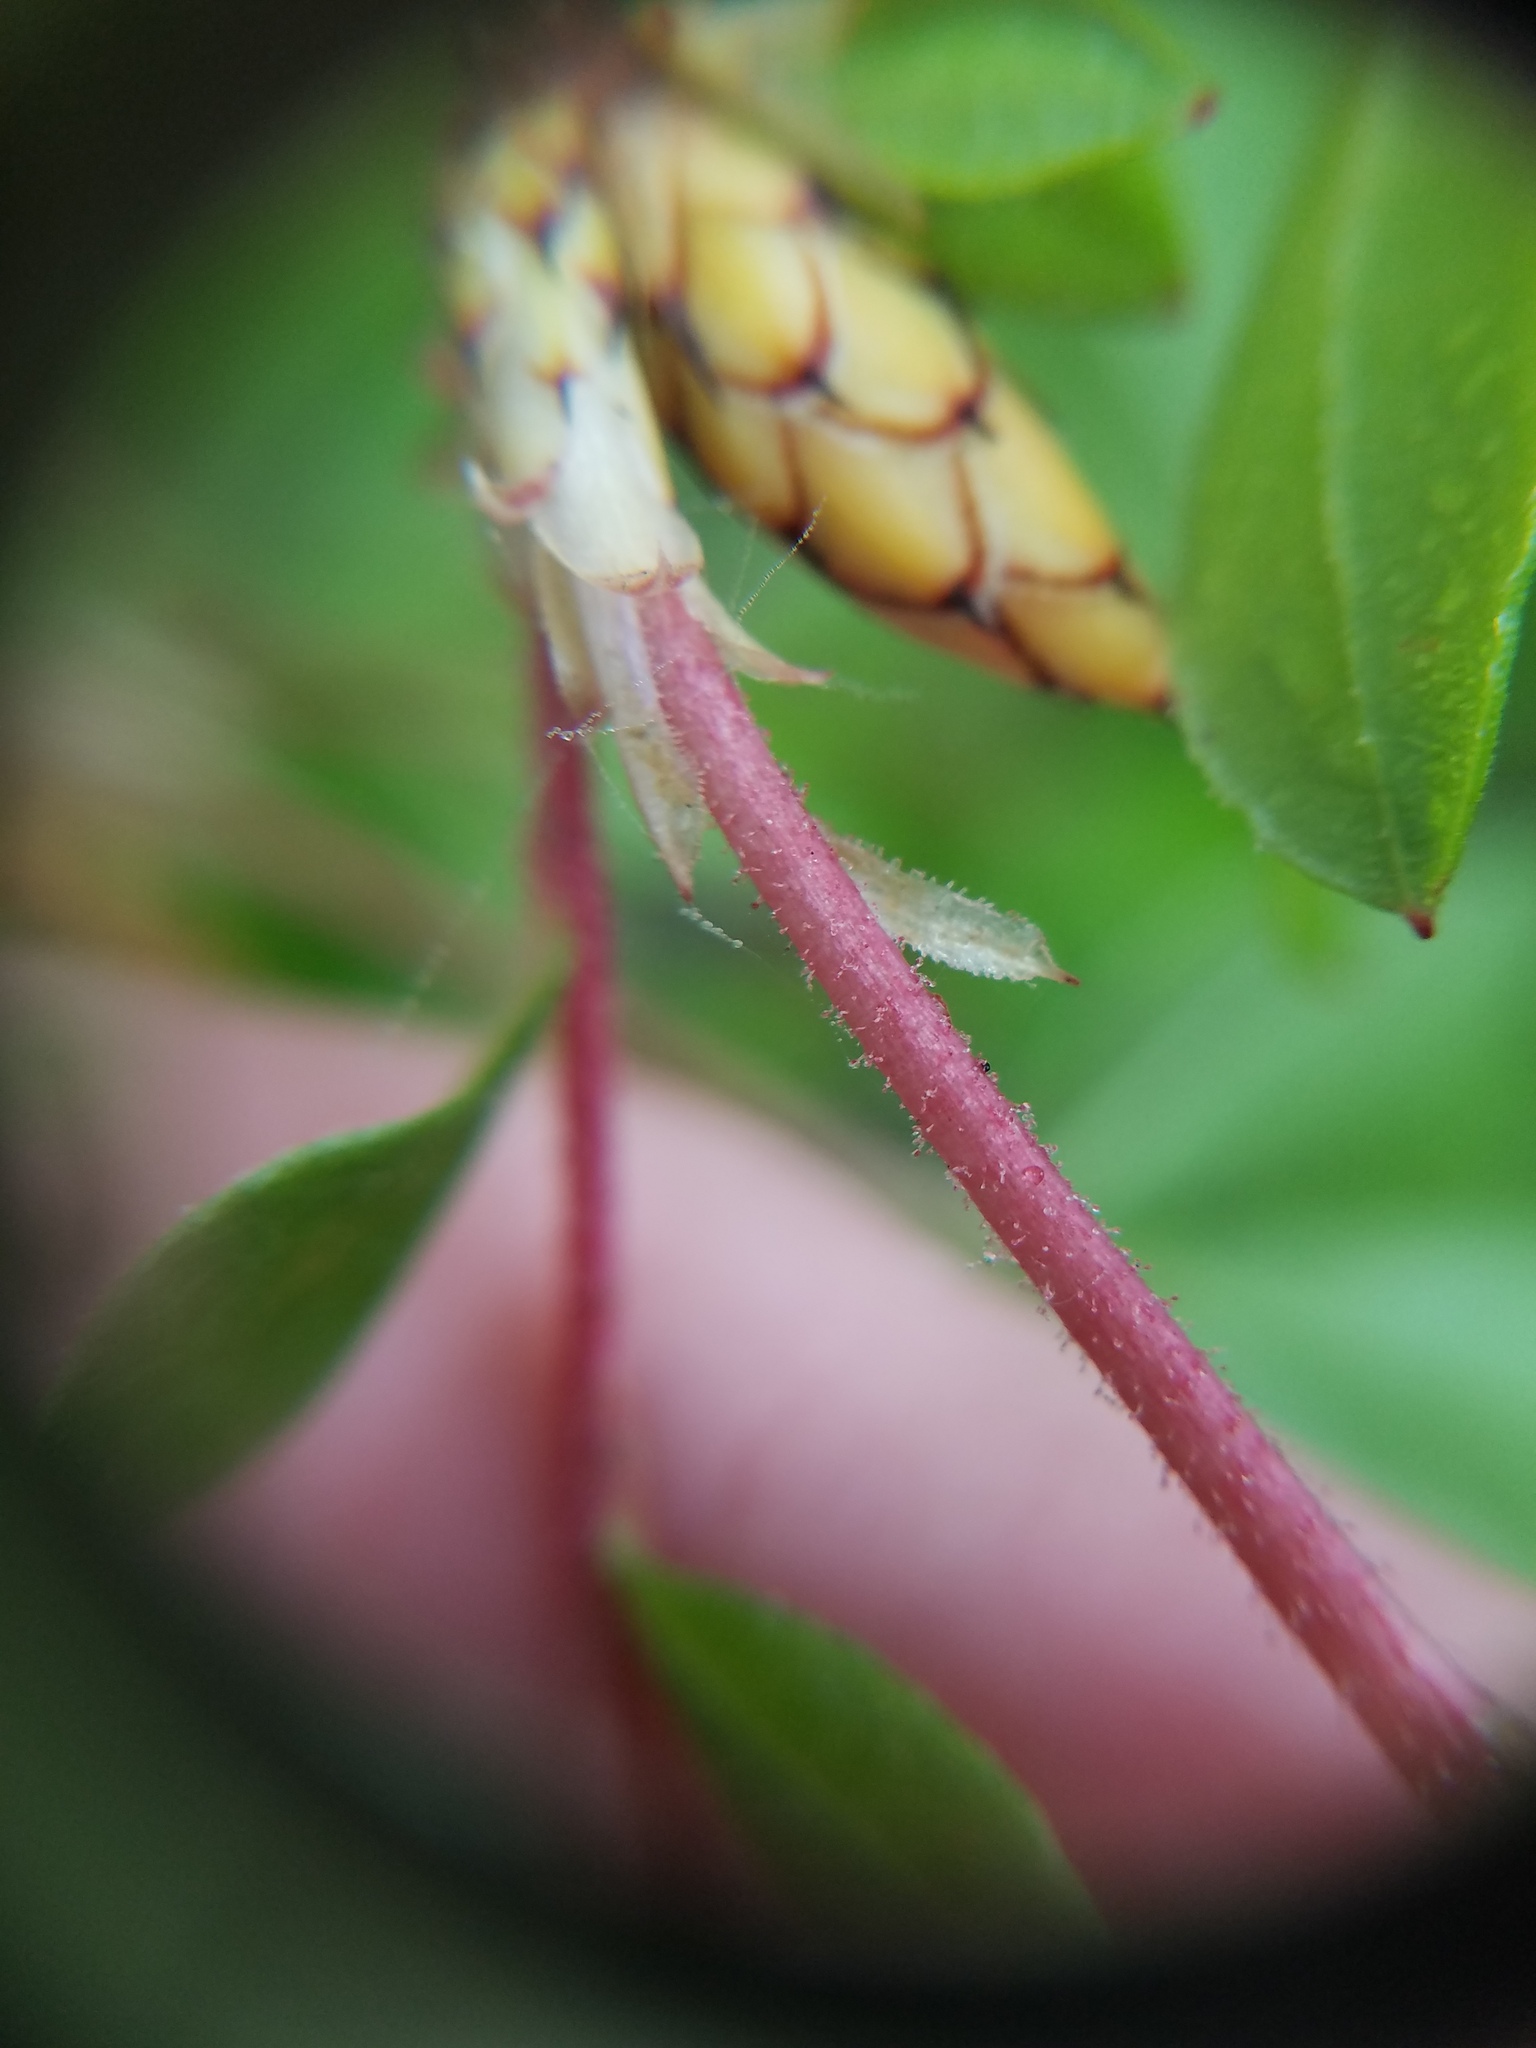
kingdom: Plantae
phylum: Tracheophyta
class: Magnoliopsida
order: Ericales
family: Ericaceae
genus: Rhododendron
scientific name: Rhododendron serrulatum
